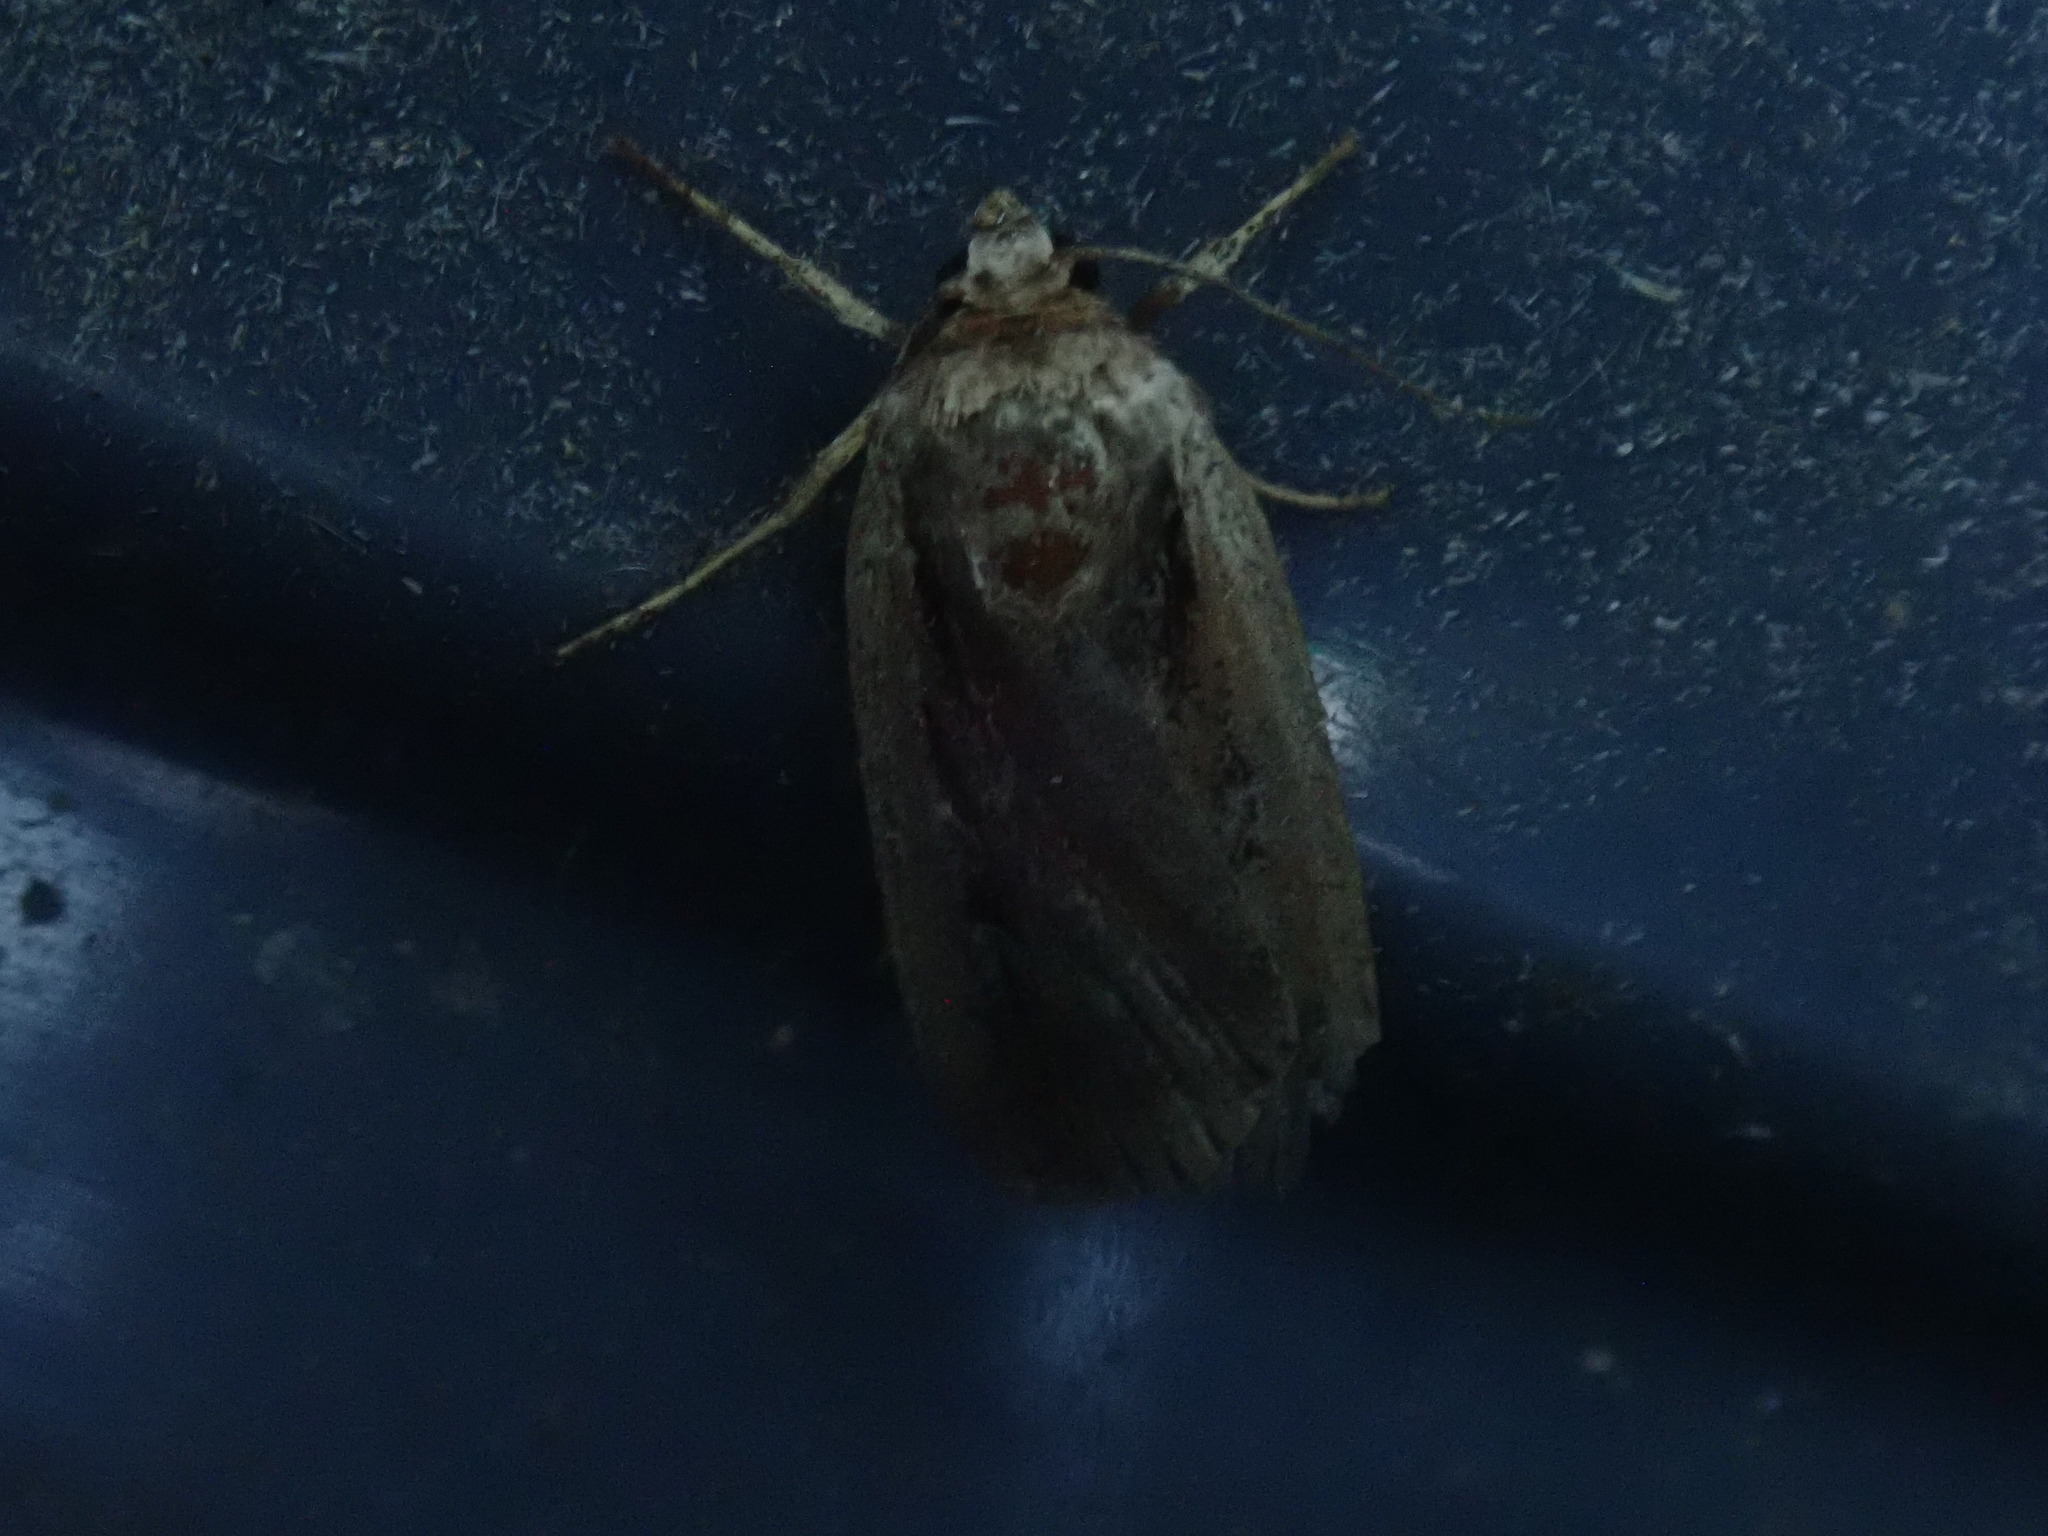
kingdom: Animalia
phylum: Arthropoda
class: Insecta
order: Lepidoptera
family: Noctuidae
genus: Ochropleura
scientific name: Ochropleura implecta
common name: Flame-shouldered dart
